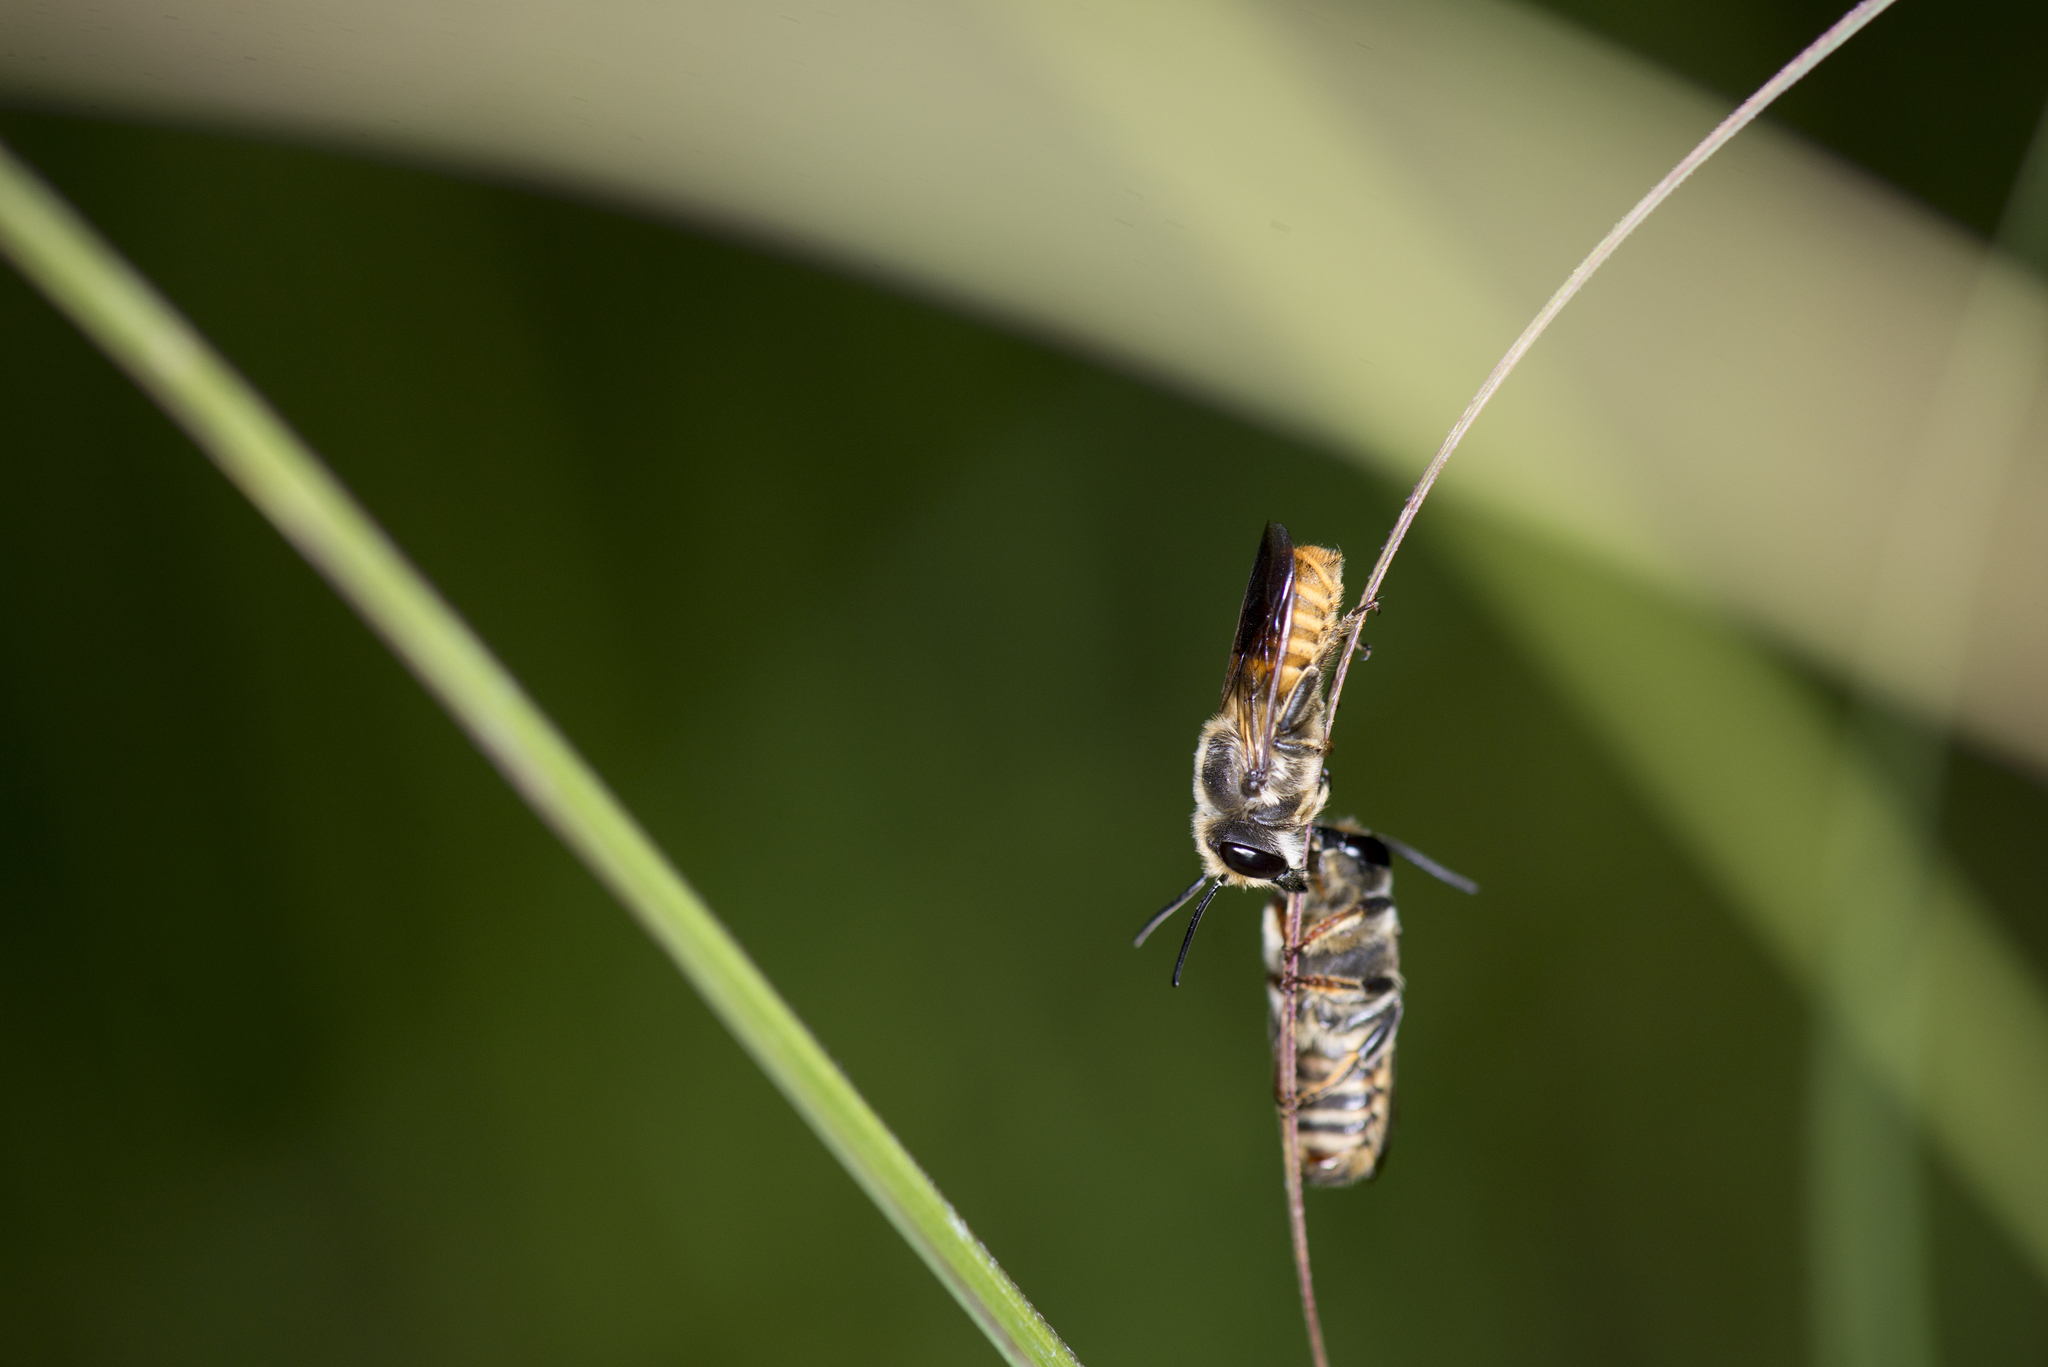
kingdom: Animalia
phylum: Arthropoda
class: Insecta
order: Hymenoptera
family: Megachilidae
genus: Megachile
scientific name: Megachile takaoensis
